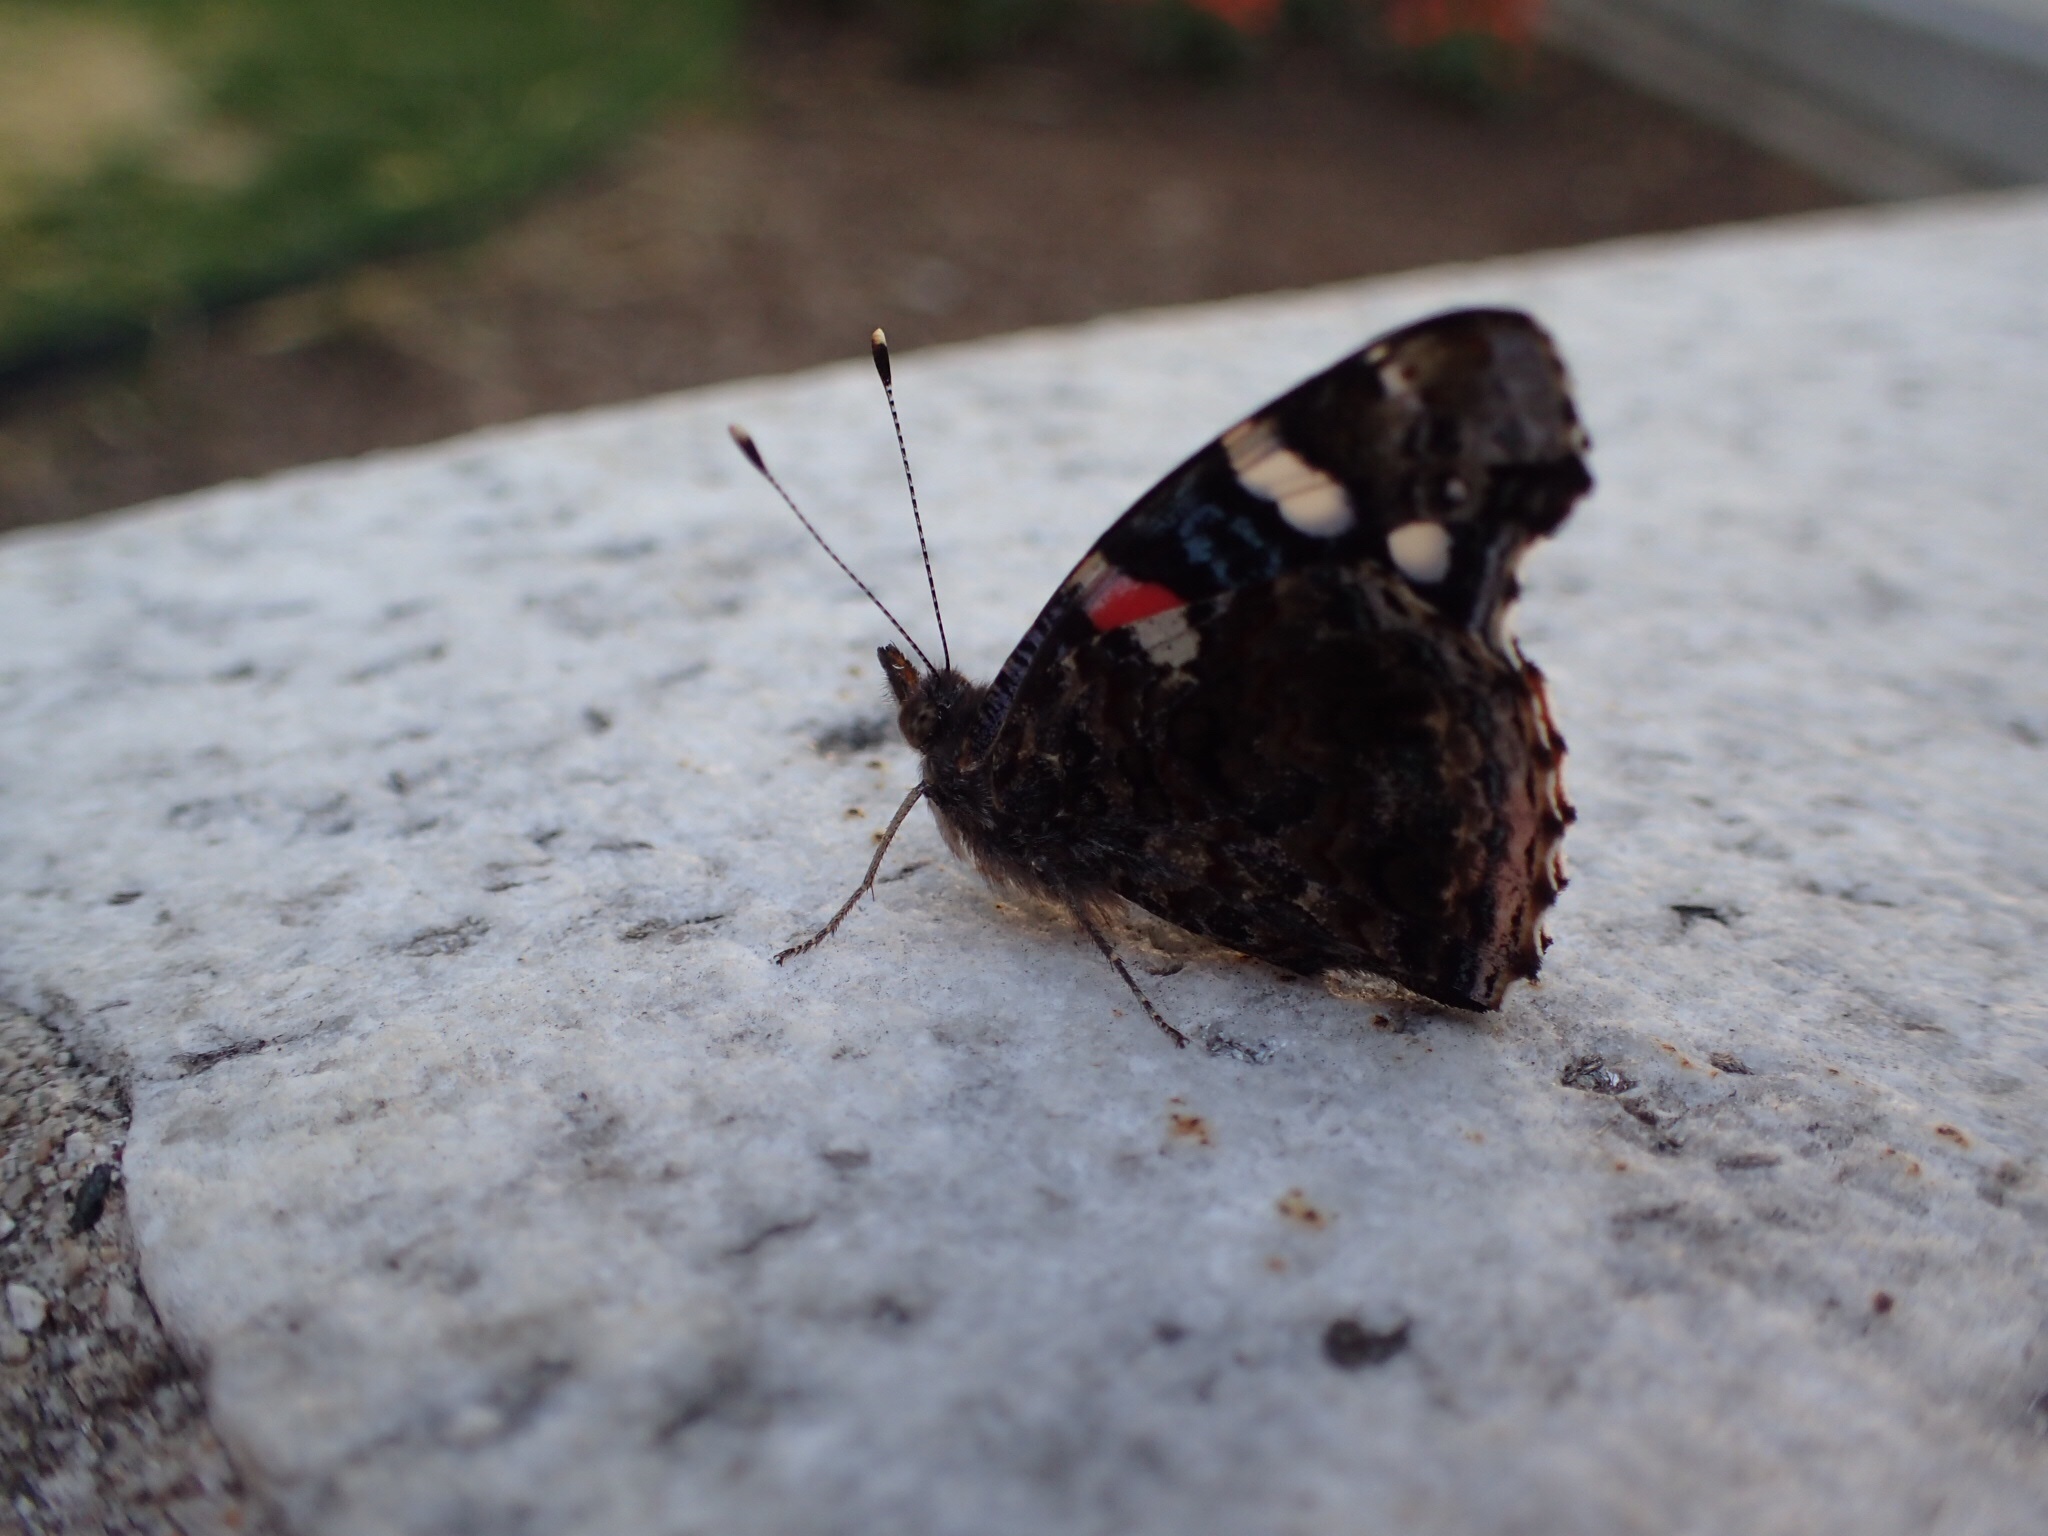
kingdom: Animalia
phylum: Arthropoda
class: Insecta
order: Lepidoptera
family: Nymphalidae
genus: Vanessa
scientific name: Vanessa atalanta
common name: Red admiral
